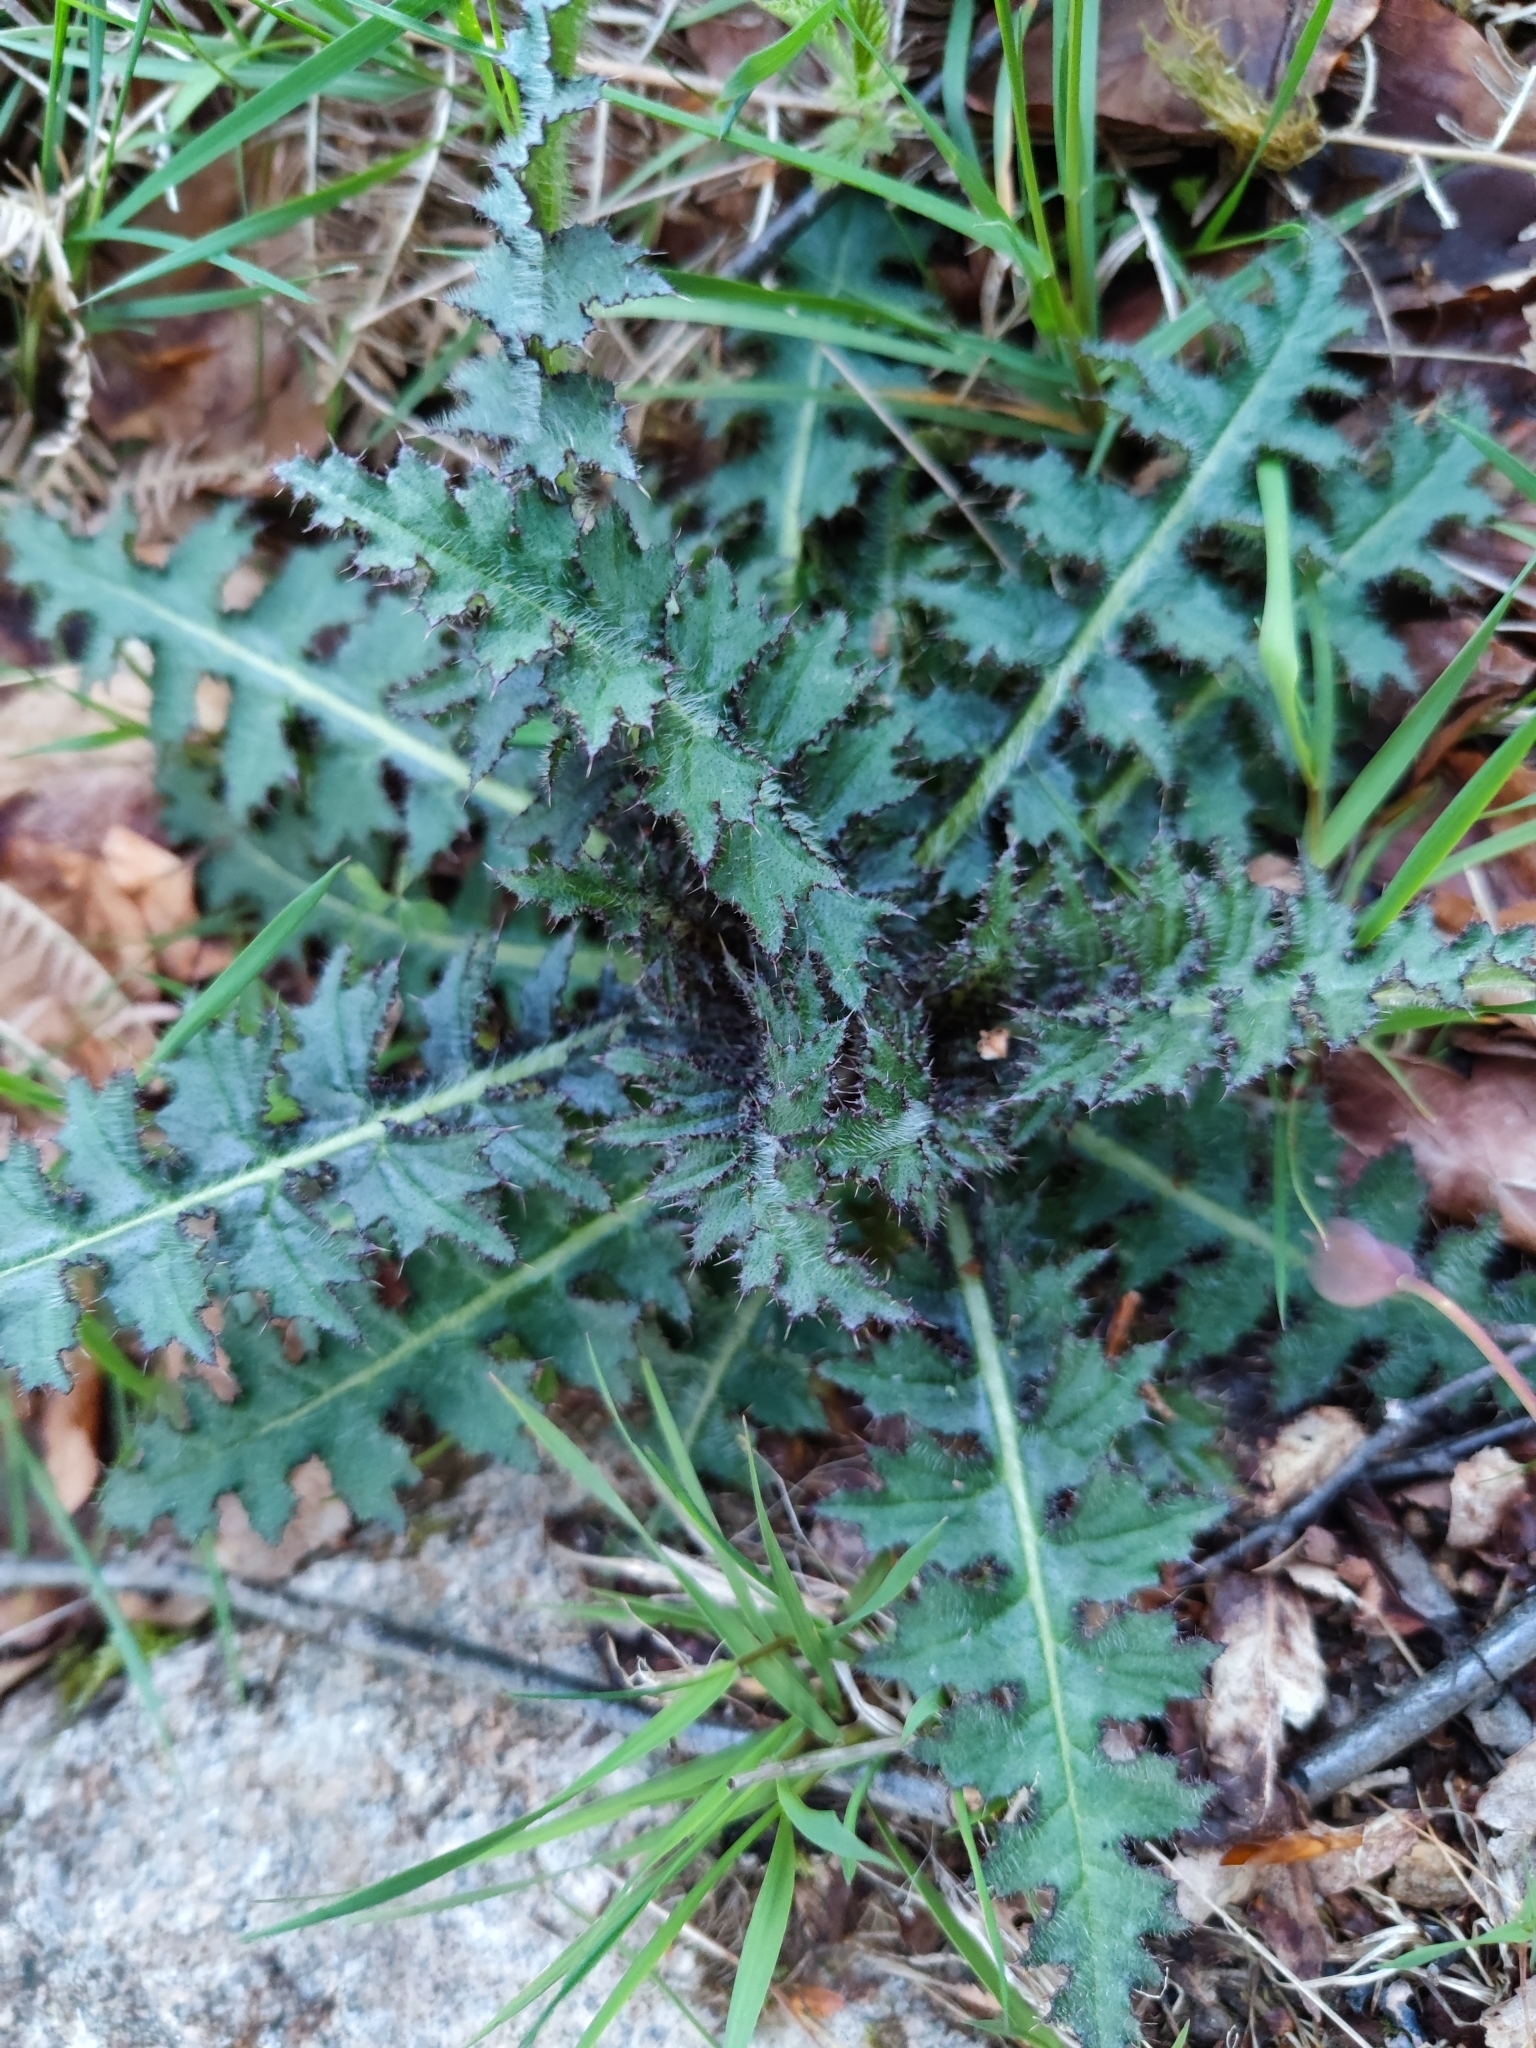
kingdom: Plantae
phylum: Tracheophyta
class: Magnoliopsida
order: Asterales
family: Asteraceae
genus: Cirsium
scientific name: Cirsium palustre
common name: Marsh thistle
